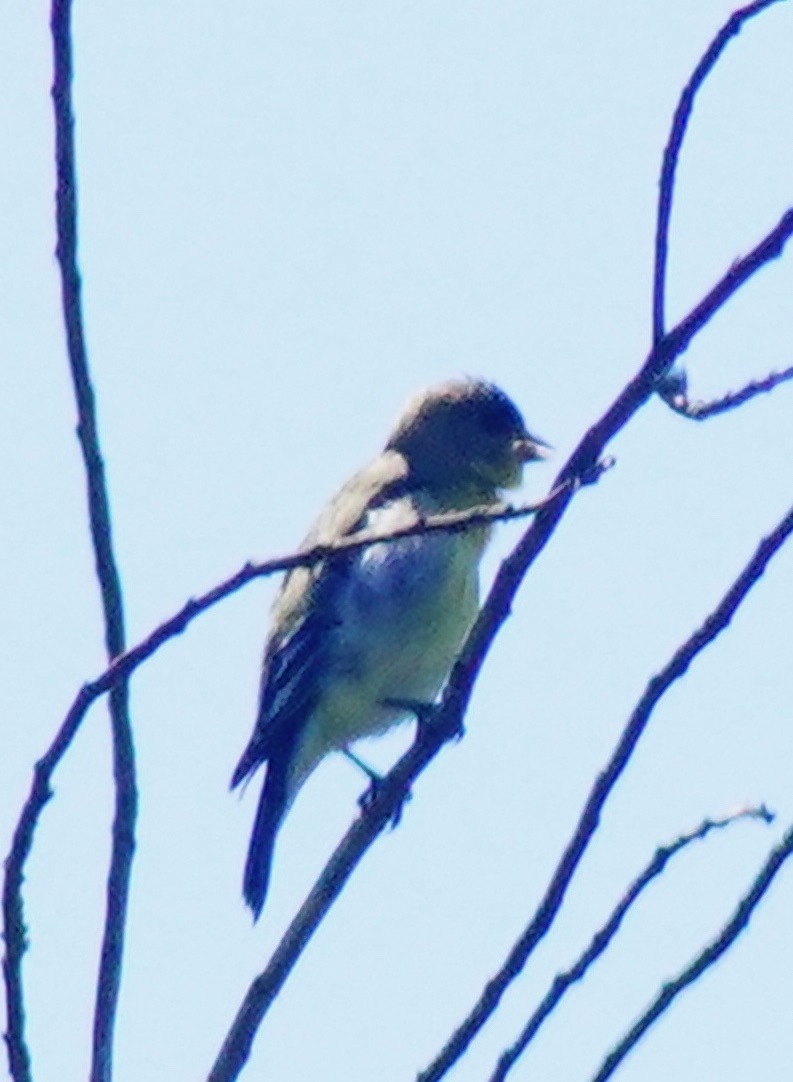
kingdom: Animalia
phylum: Chordata
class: Aves
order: Passeriformes
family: Fringillidae
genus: Spinus
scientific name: Spinus psaltria
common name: Lesser goldfinch
